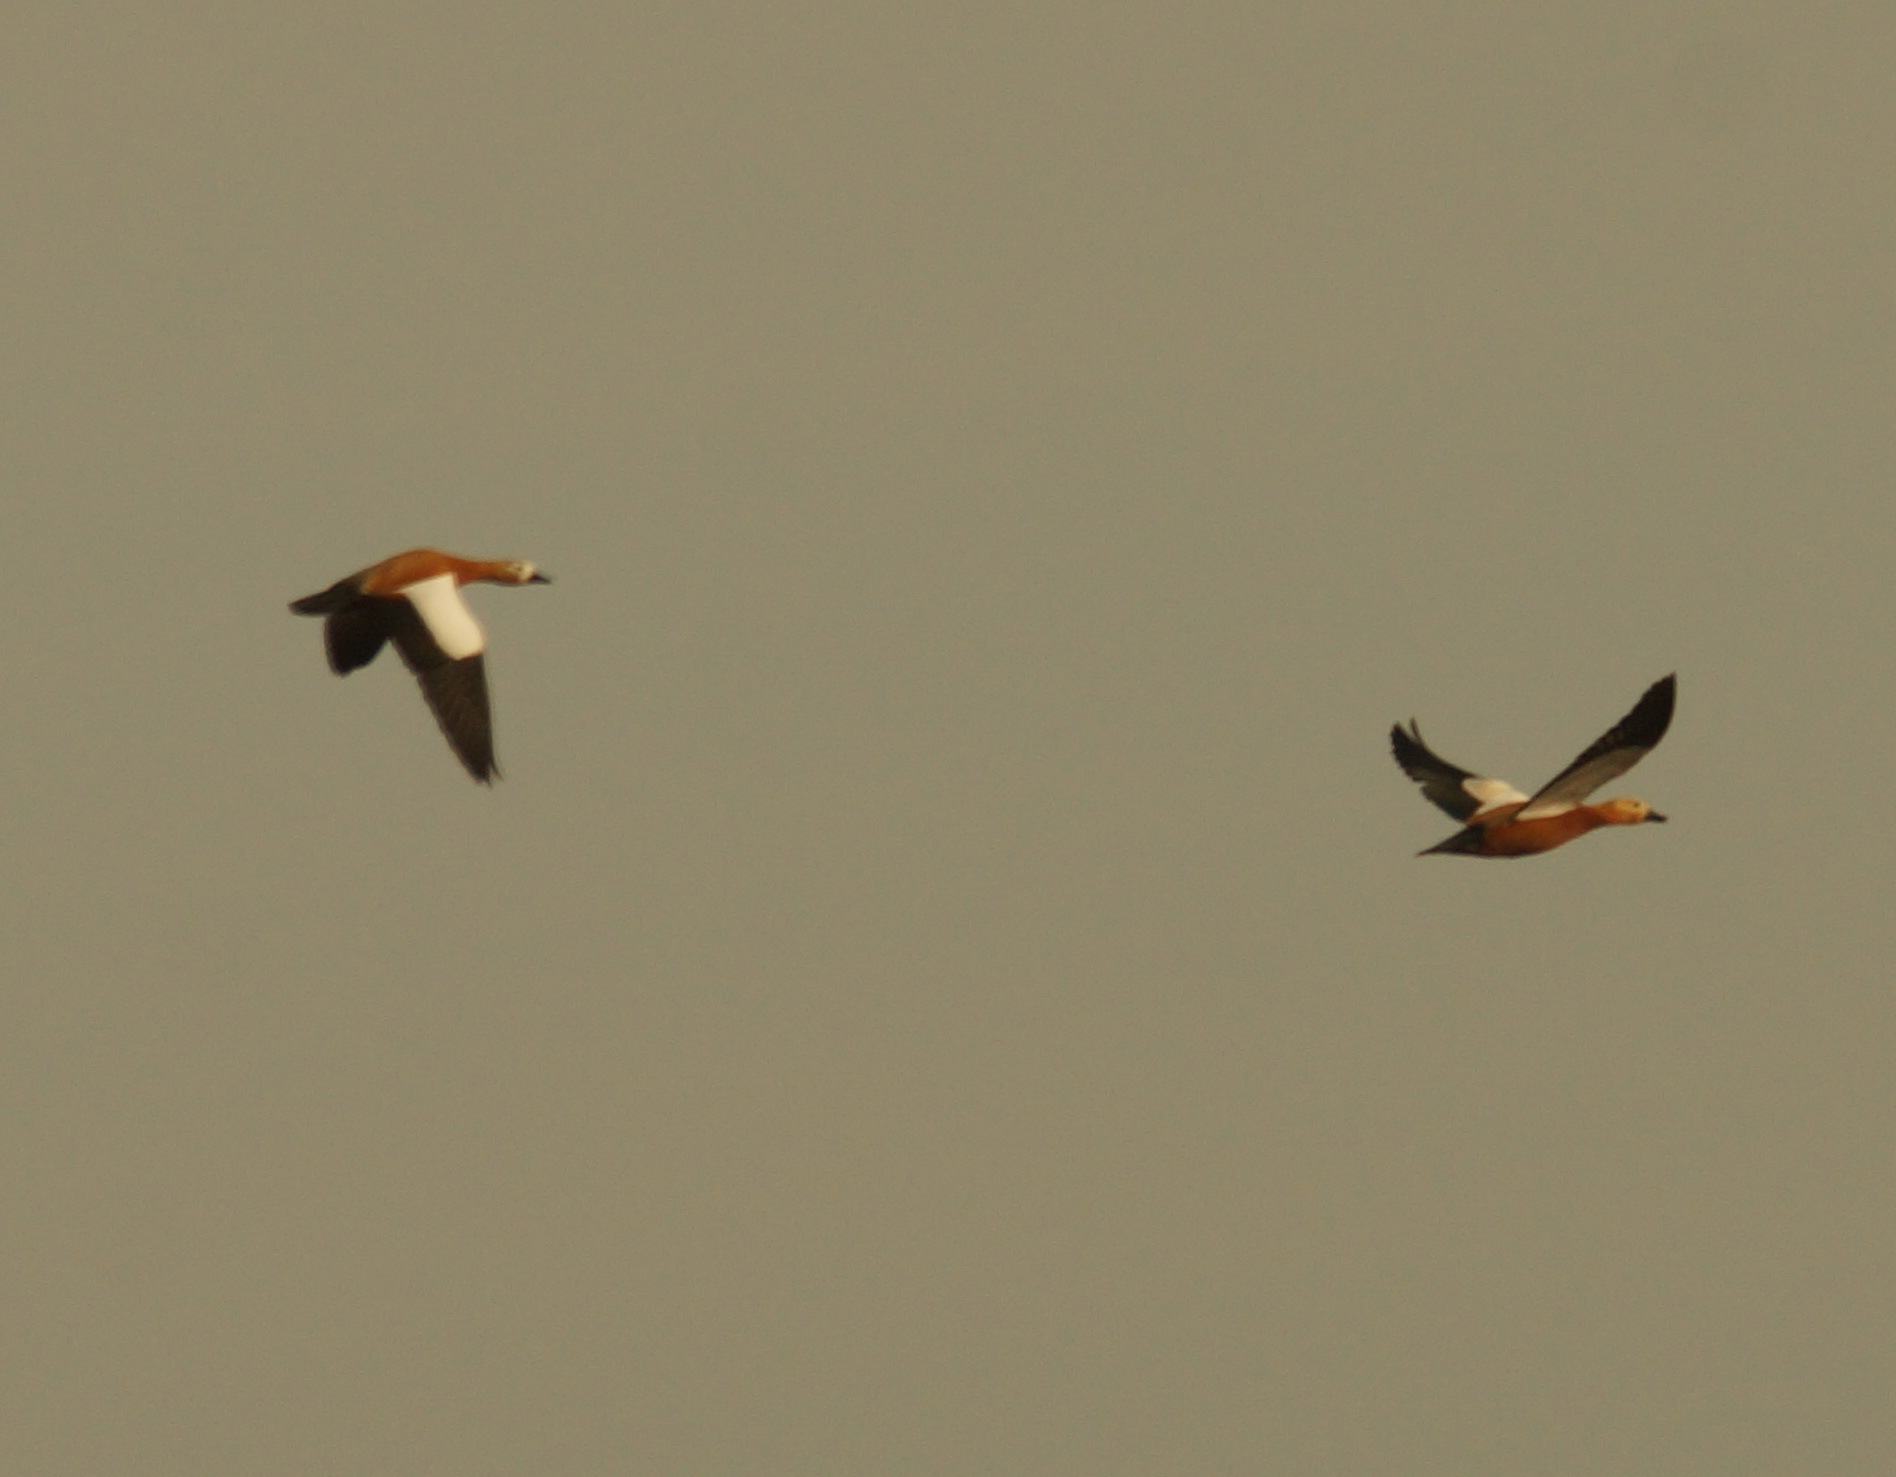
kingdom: Animalia
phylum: Chordata
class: Aves
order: Anseriformes
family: Anatidae
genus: Tadorna
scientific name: Tadorna ferruginea
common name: Ruddy shelduck
